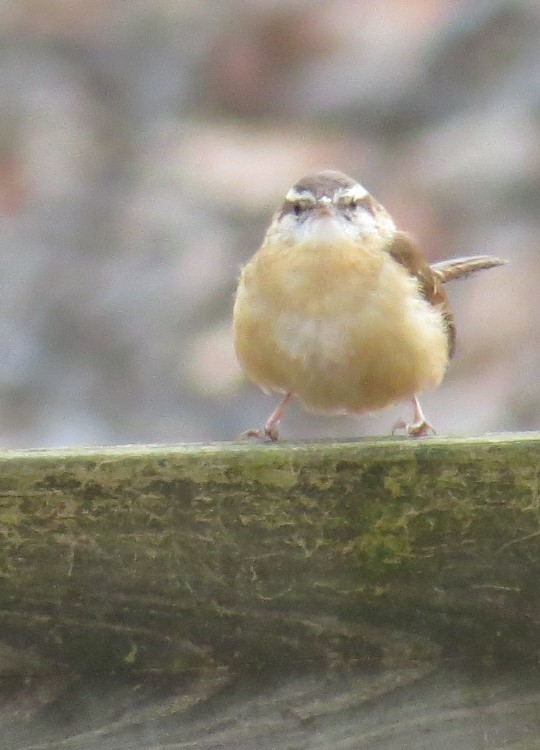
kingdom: Animalia
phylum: Chordata
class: Aves
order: Passeriformes
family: Troglodytidae
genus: Thryothorus
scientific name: Thryothorus ludovicianus
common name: Carolina wren
